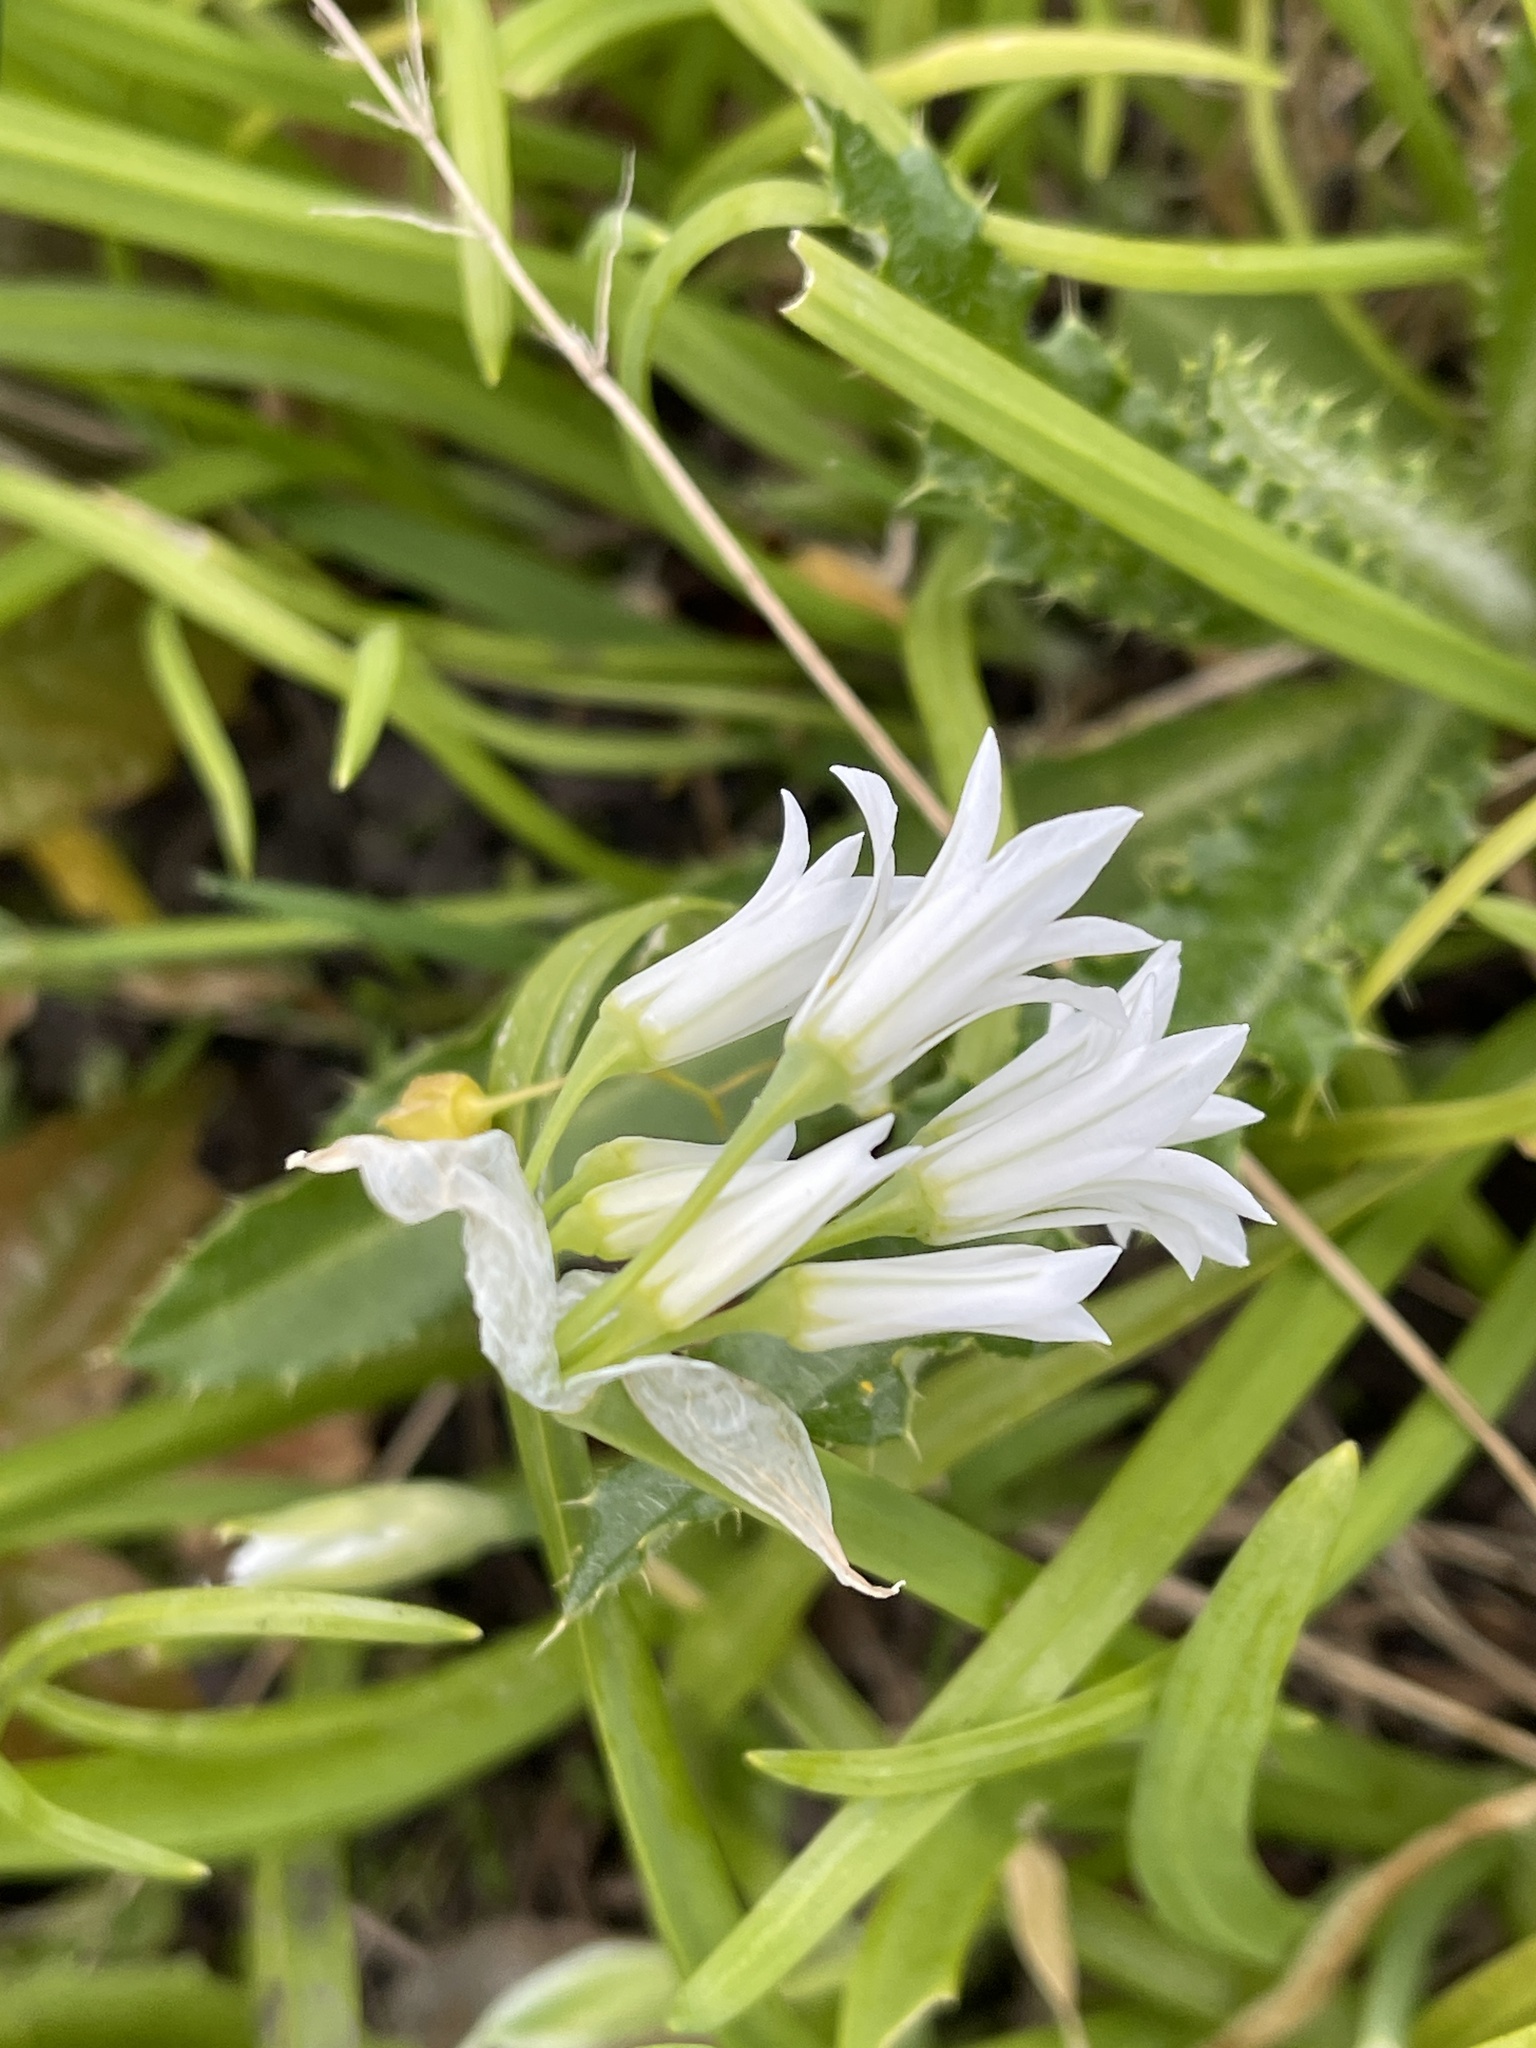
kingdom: Plantae
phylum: Tracheophyta
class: Liliopsida
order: Asparagales
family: Amaryllidaceae
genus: Allium
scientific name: Allium triquetrum
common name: Three-cornered garlic
